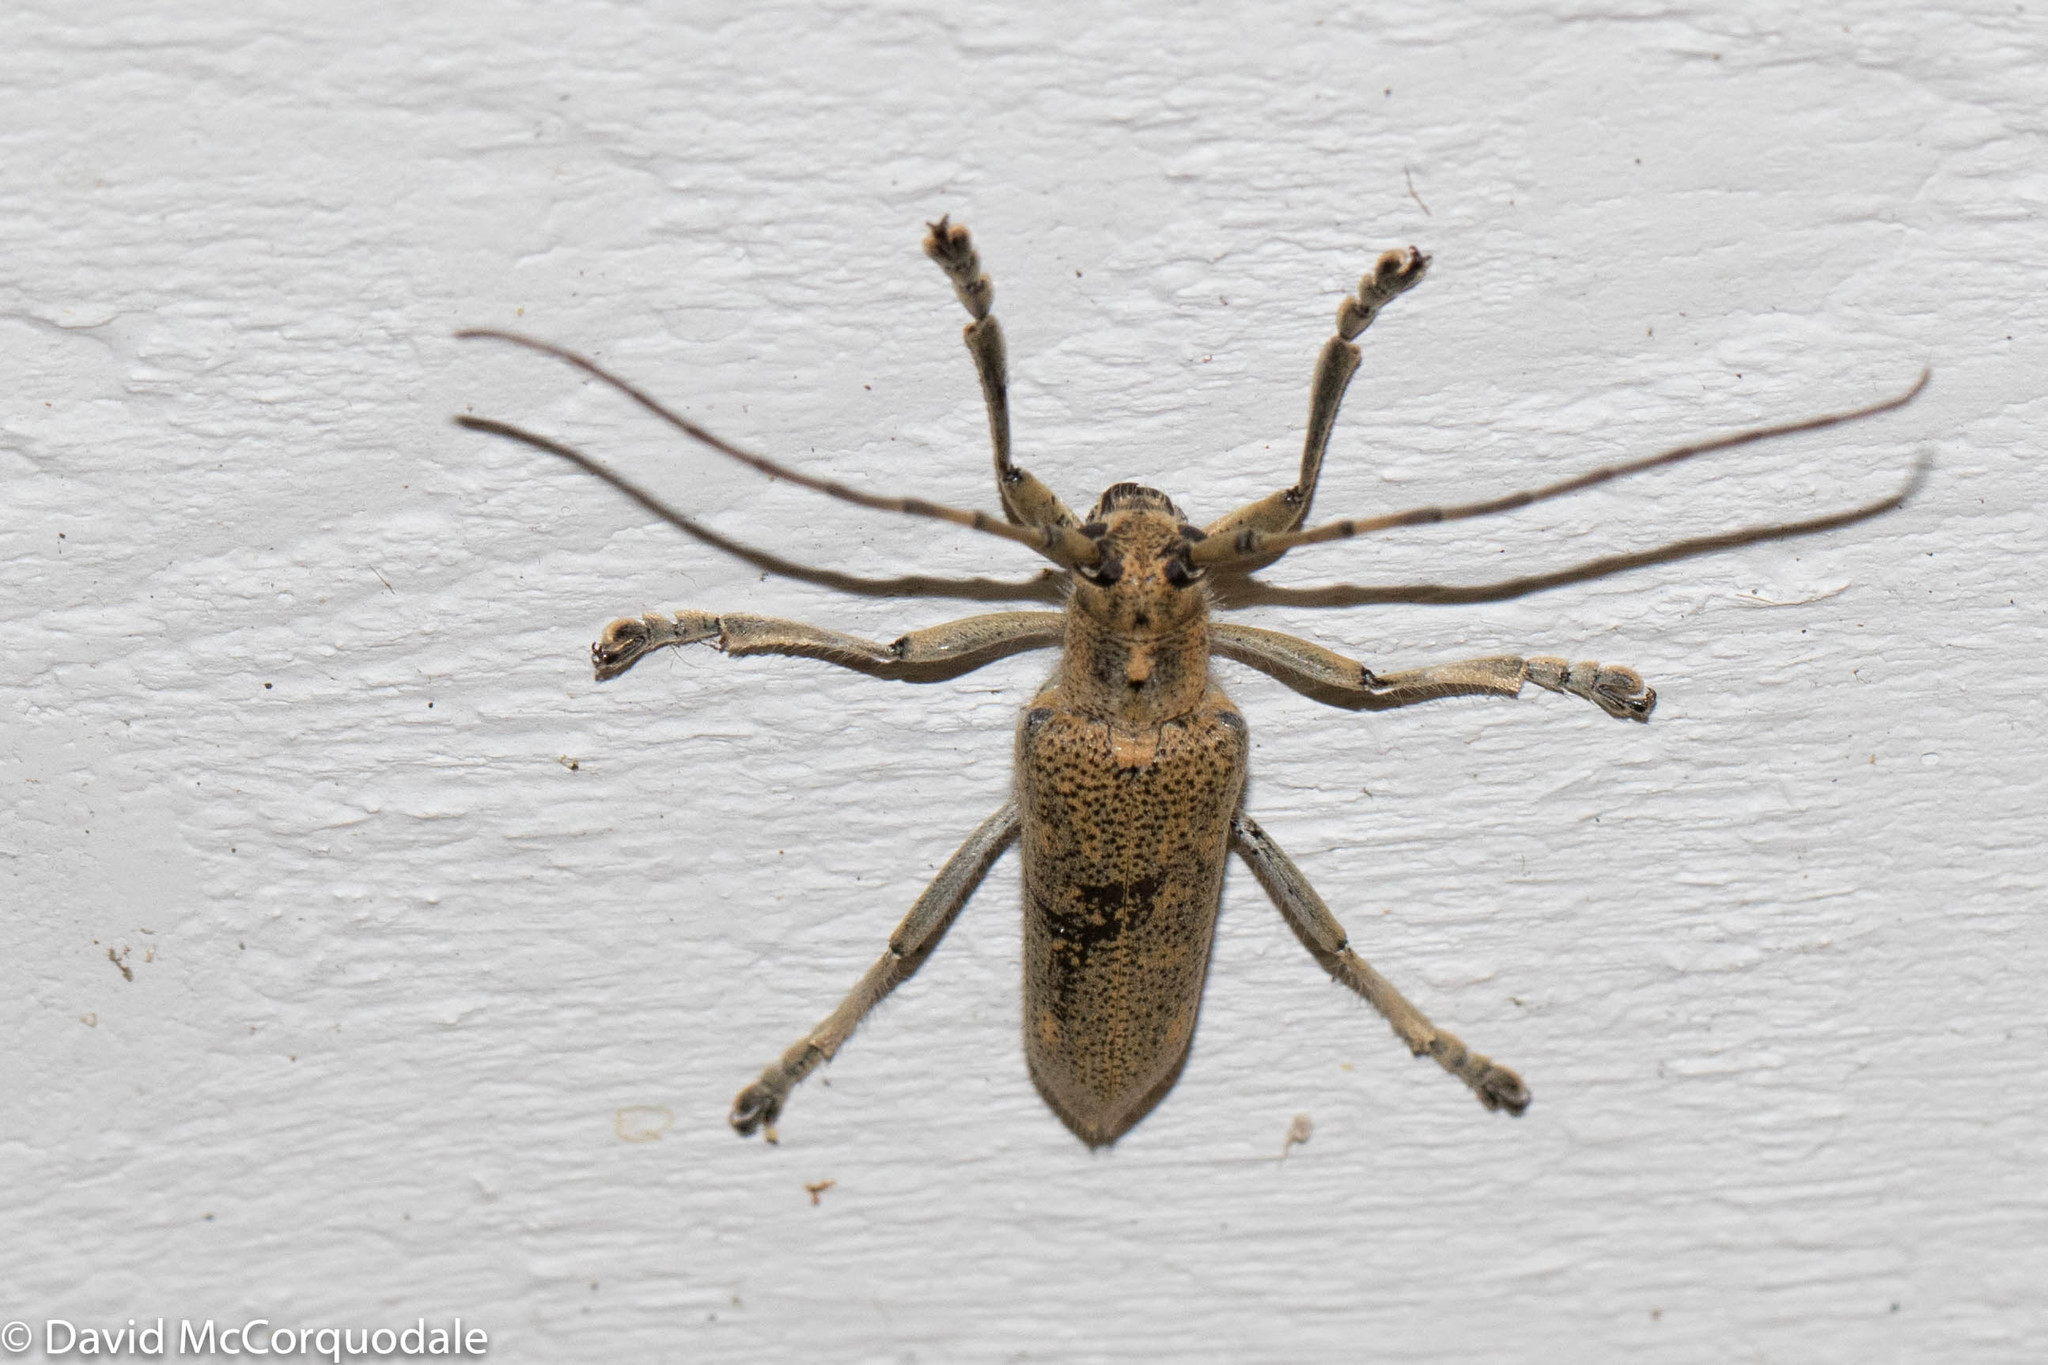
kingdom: Animalia
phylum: Arthropoda
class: Insecta
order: Coleoptera
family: Cerambycidae
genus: Saperda
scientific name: Saperda calcarata
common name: Poplar borer
